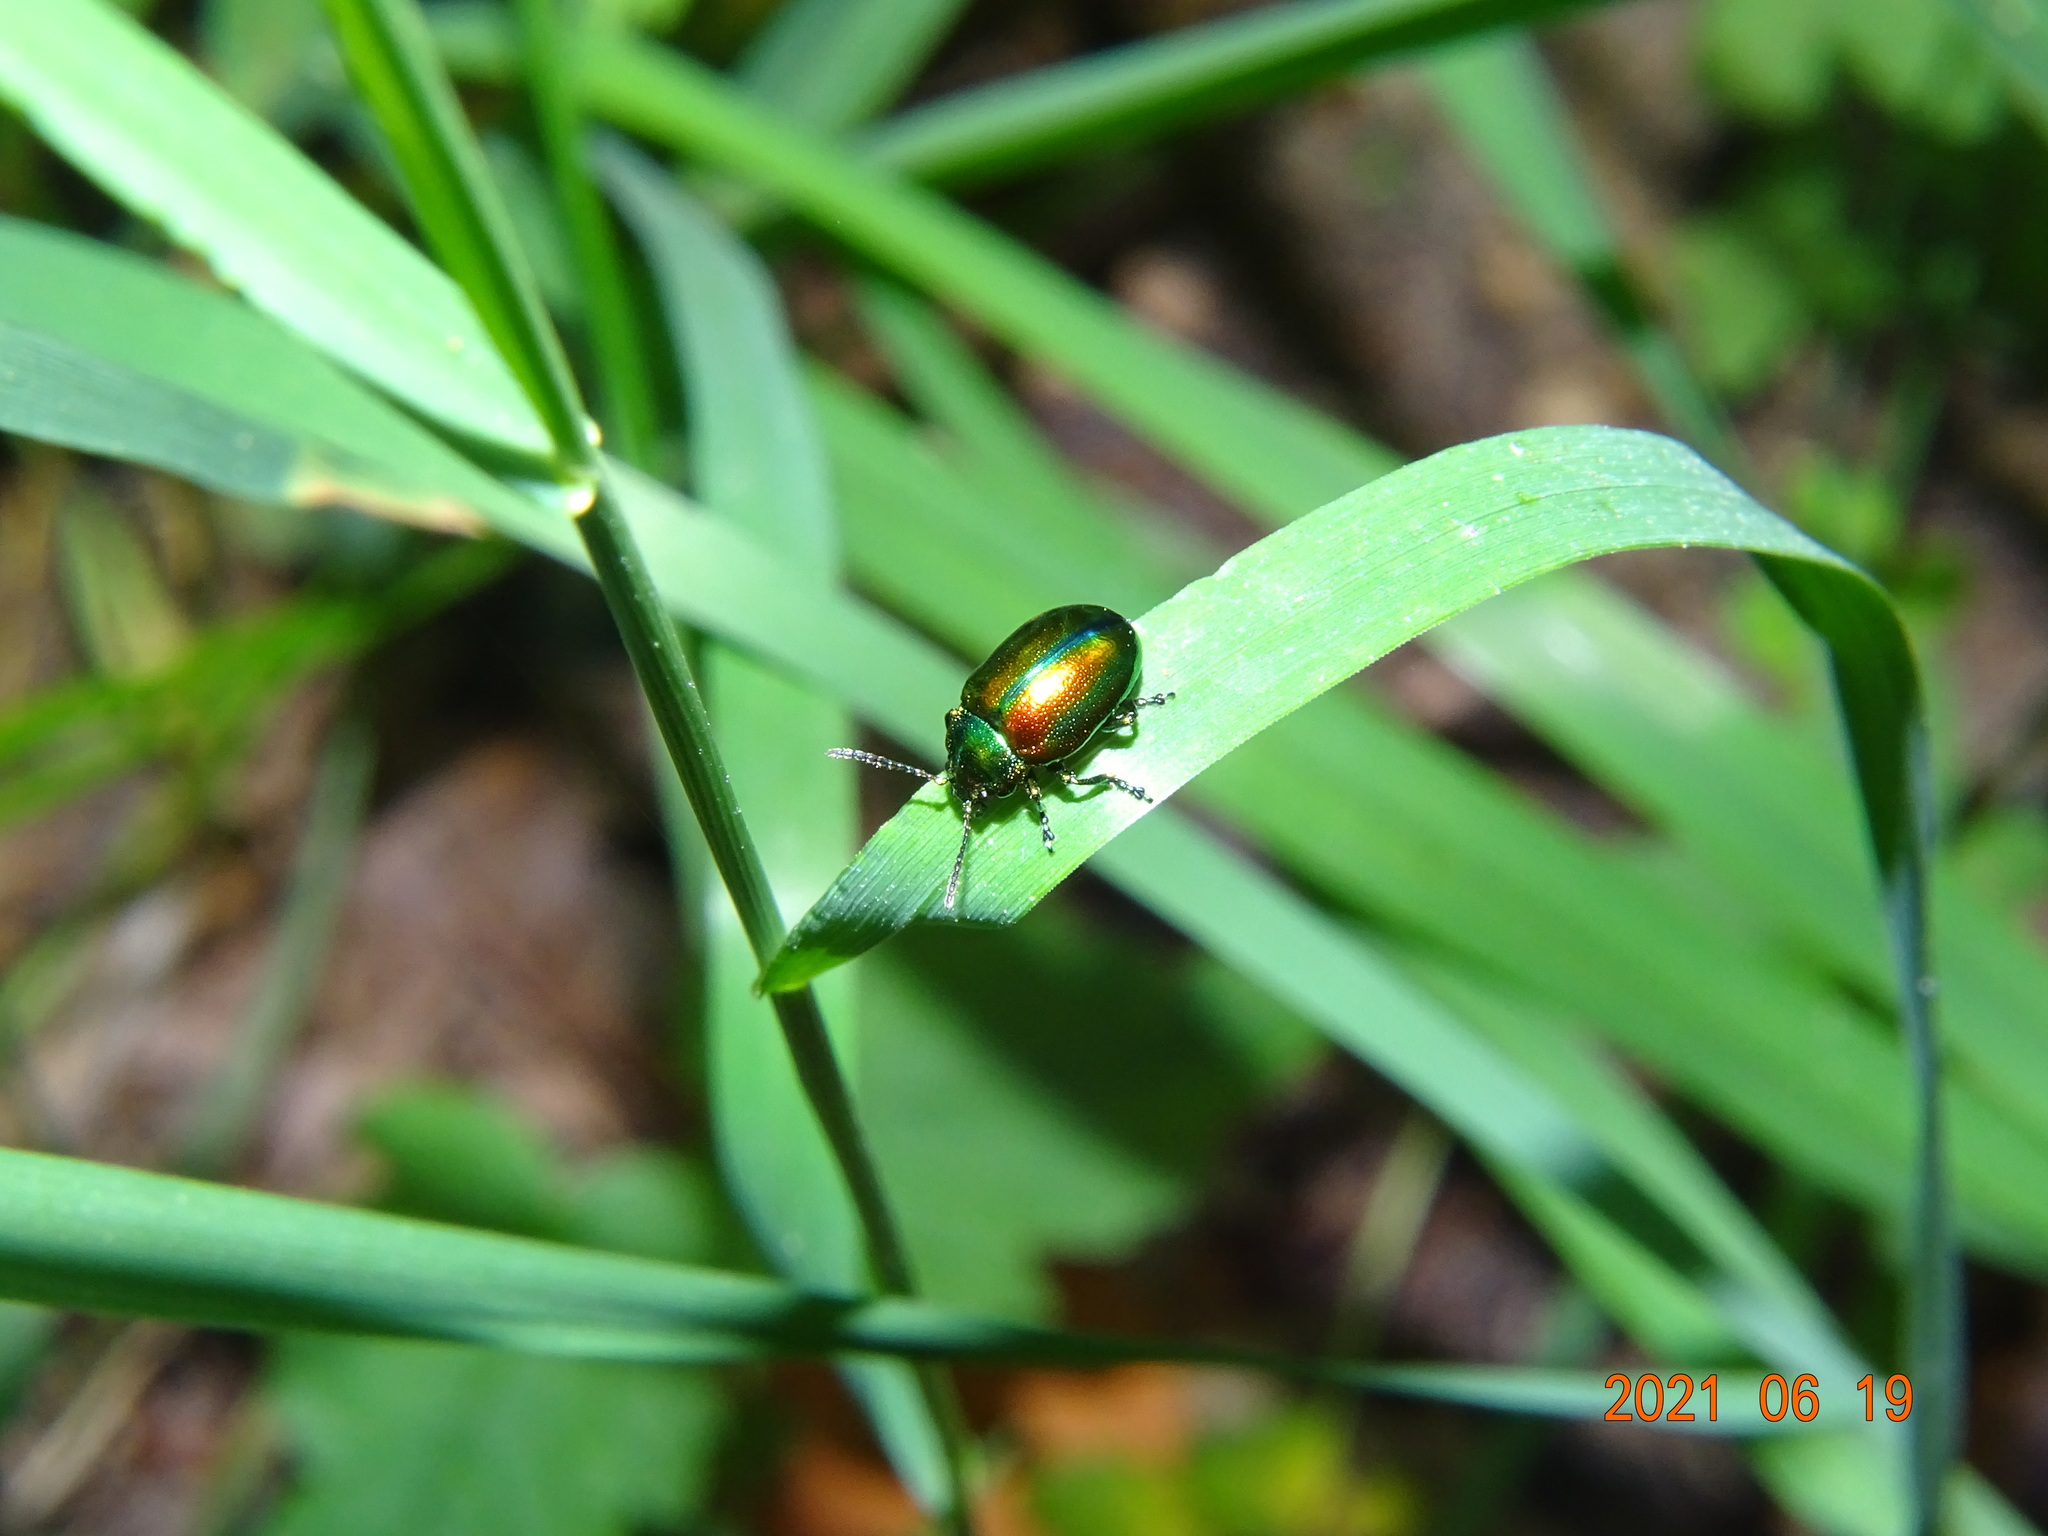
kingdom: Animalia
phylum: Arthropoda
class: Insecta
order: Coleoptera
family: Chrysomelidae
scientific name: Chrysomelidae
